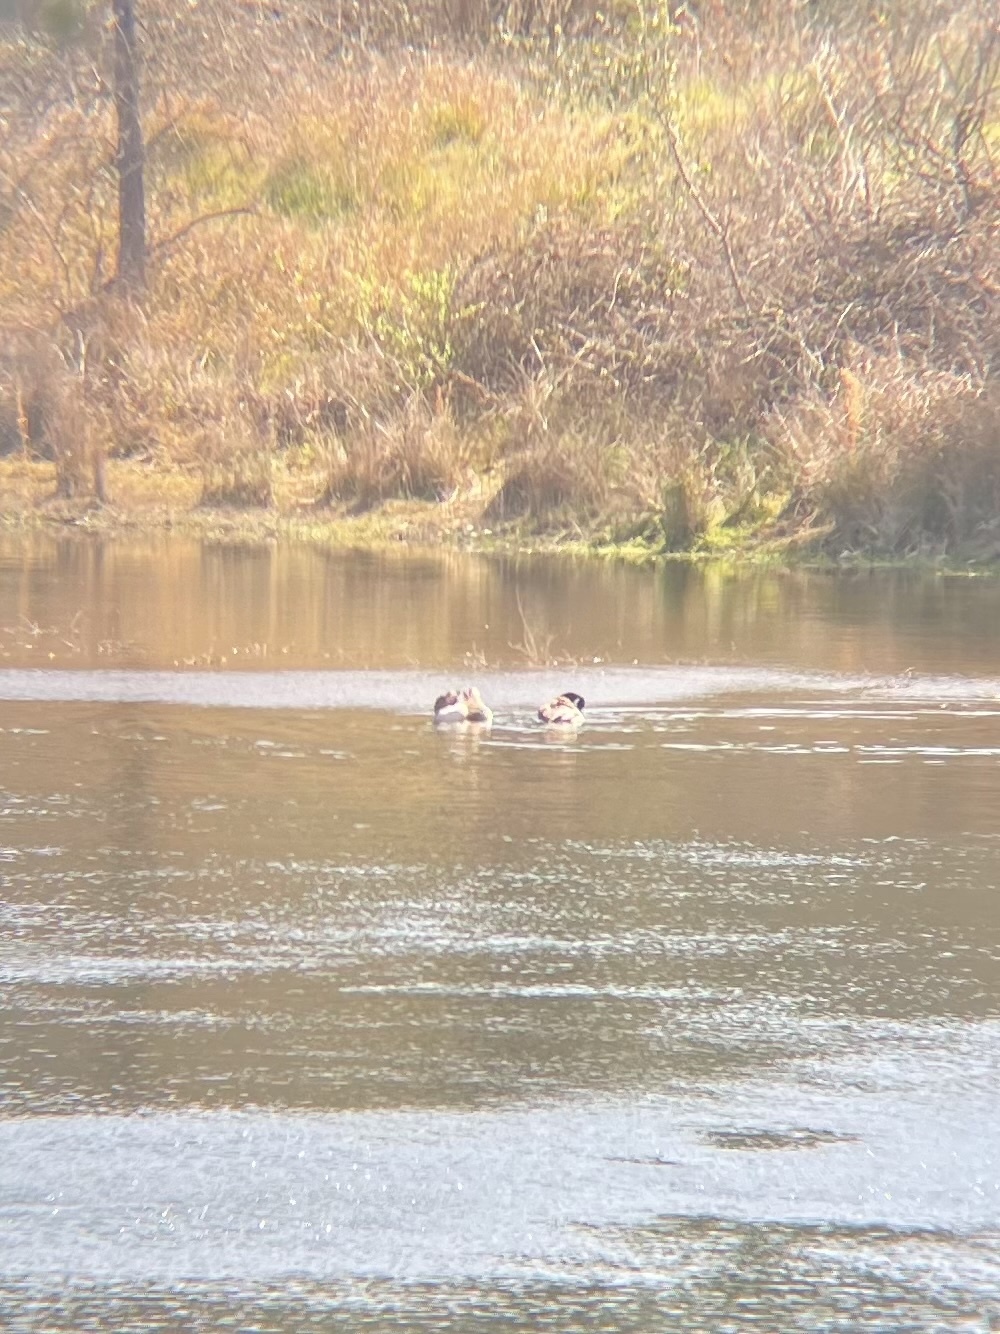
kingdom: Animalia
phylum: Chordata
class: Aves
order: Anseriformes
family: Anatidae
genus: Branta
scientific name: Branta canadensis
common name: Canada goose
